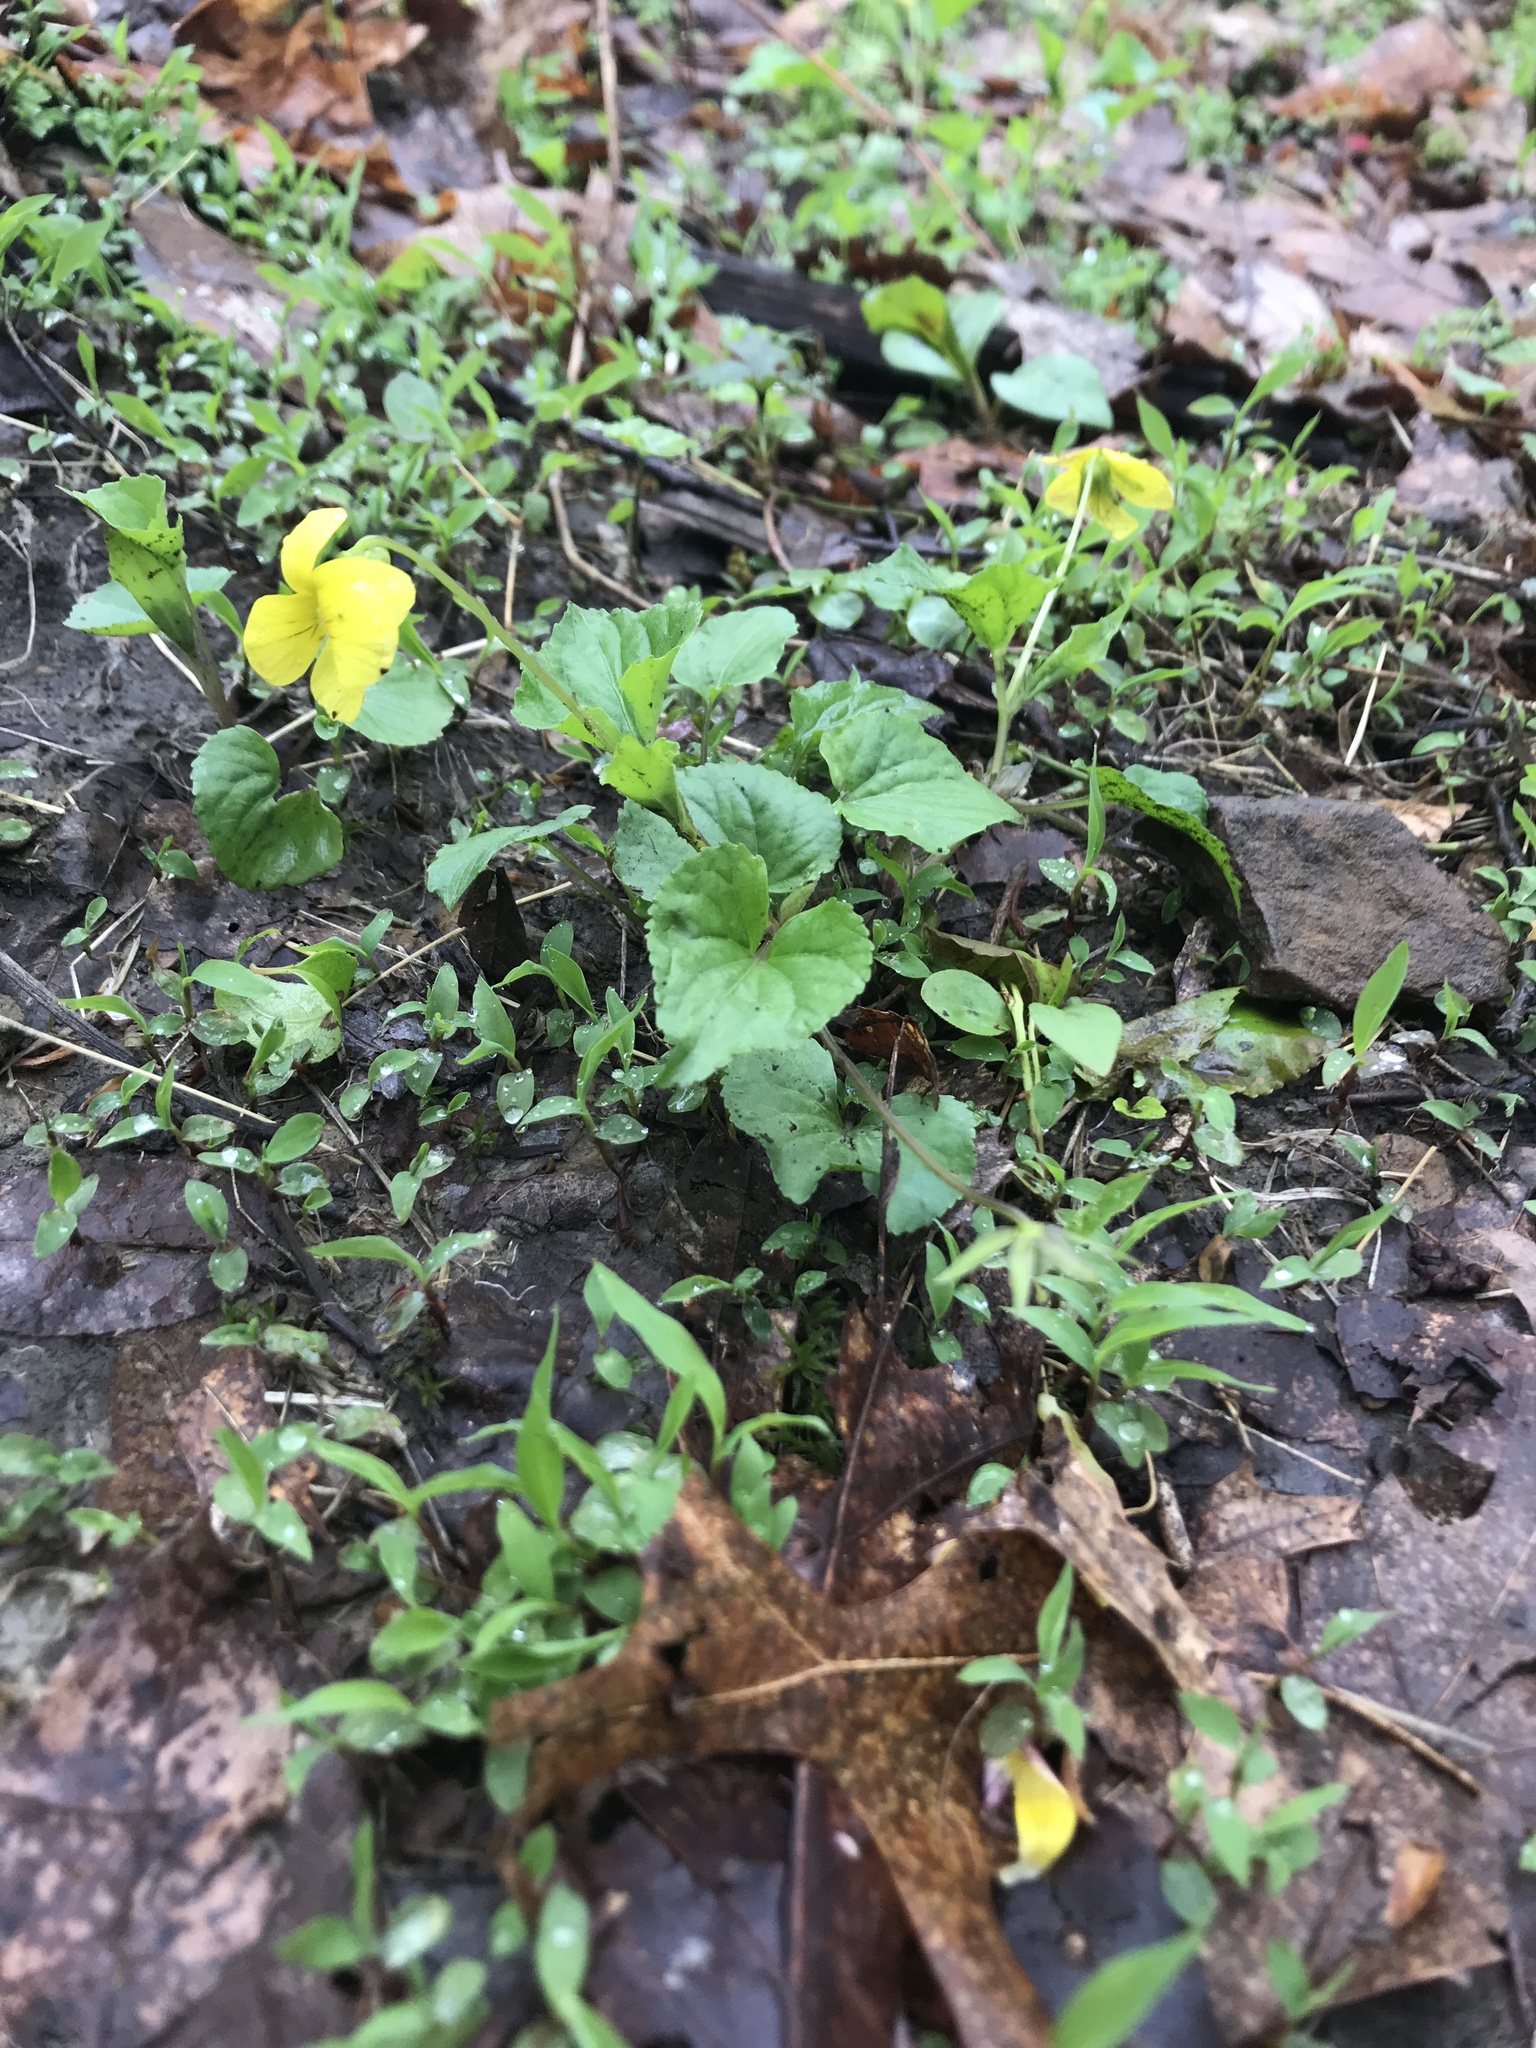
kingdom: Plantae
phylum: Tracheophyta
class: Magnoliopsida
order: Malpighiales
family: Violaceae
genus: Viola
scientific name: Viola eriocarpa
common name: Smooth yellow violet
